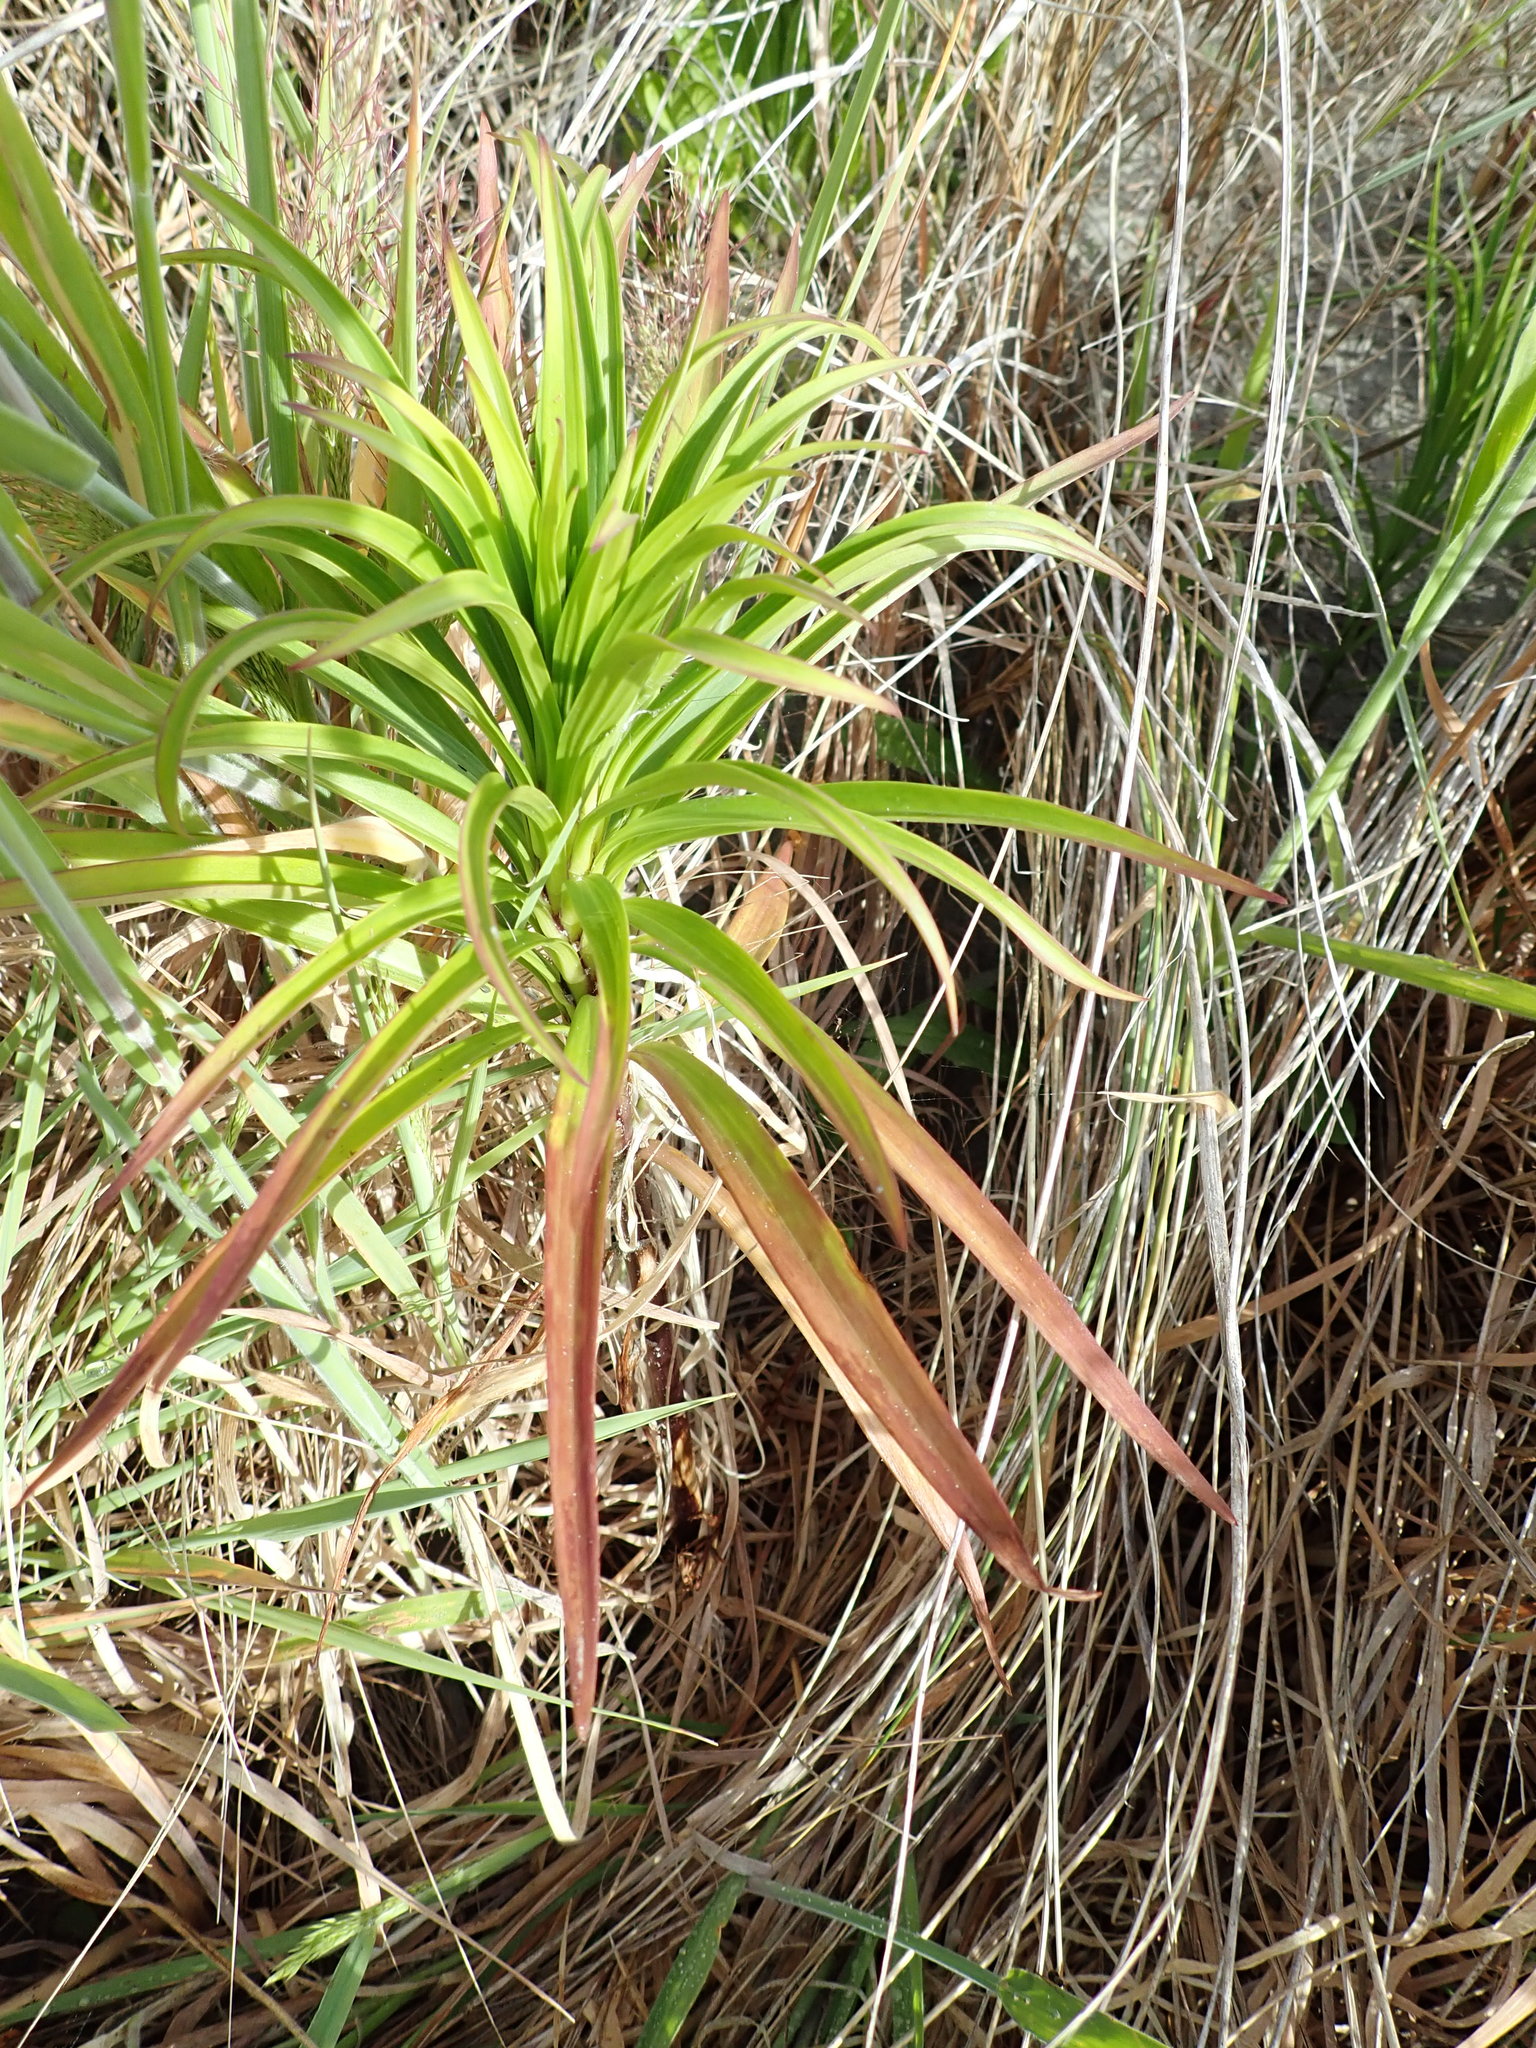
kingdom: Plantae
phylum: Tracheophyta
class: Liliopsida
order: Liliales
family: Liliaceae
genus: Lilium
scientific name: Lilium formosanum
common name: Formosa lily
